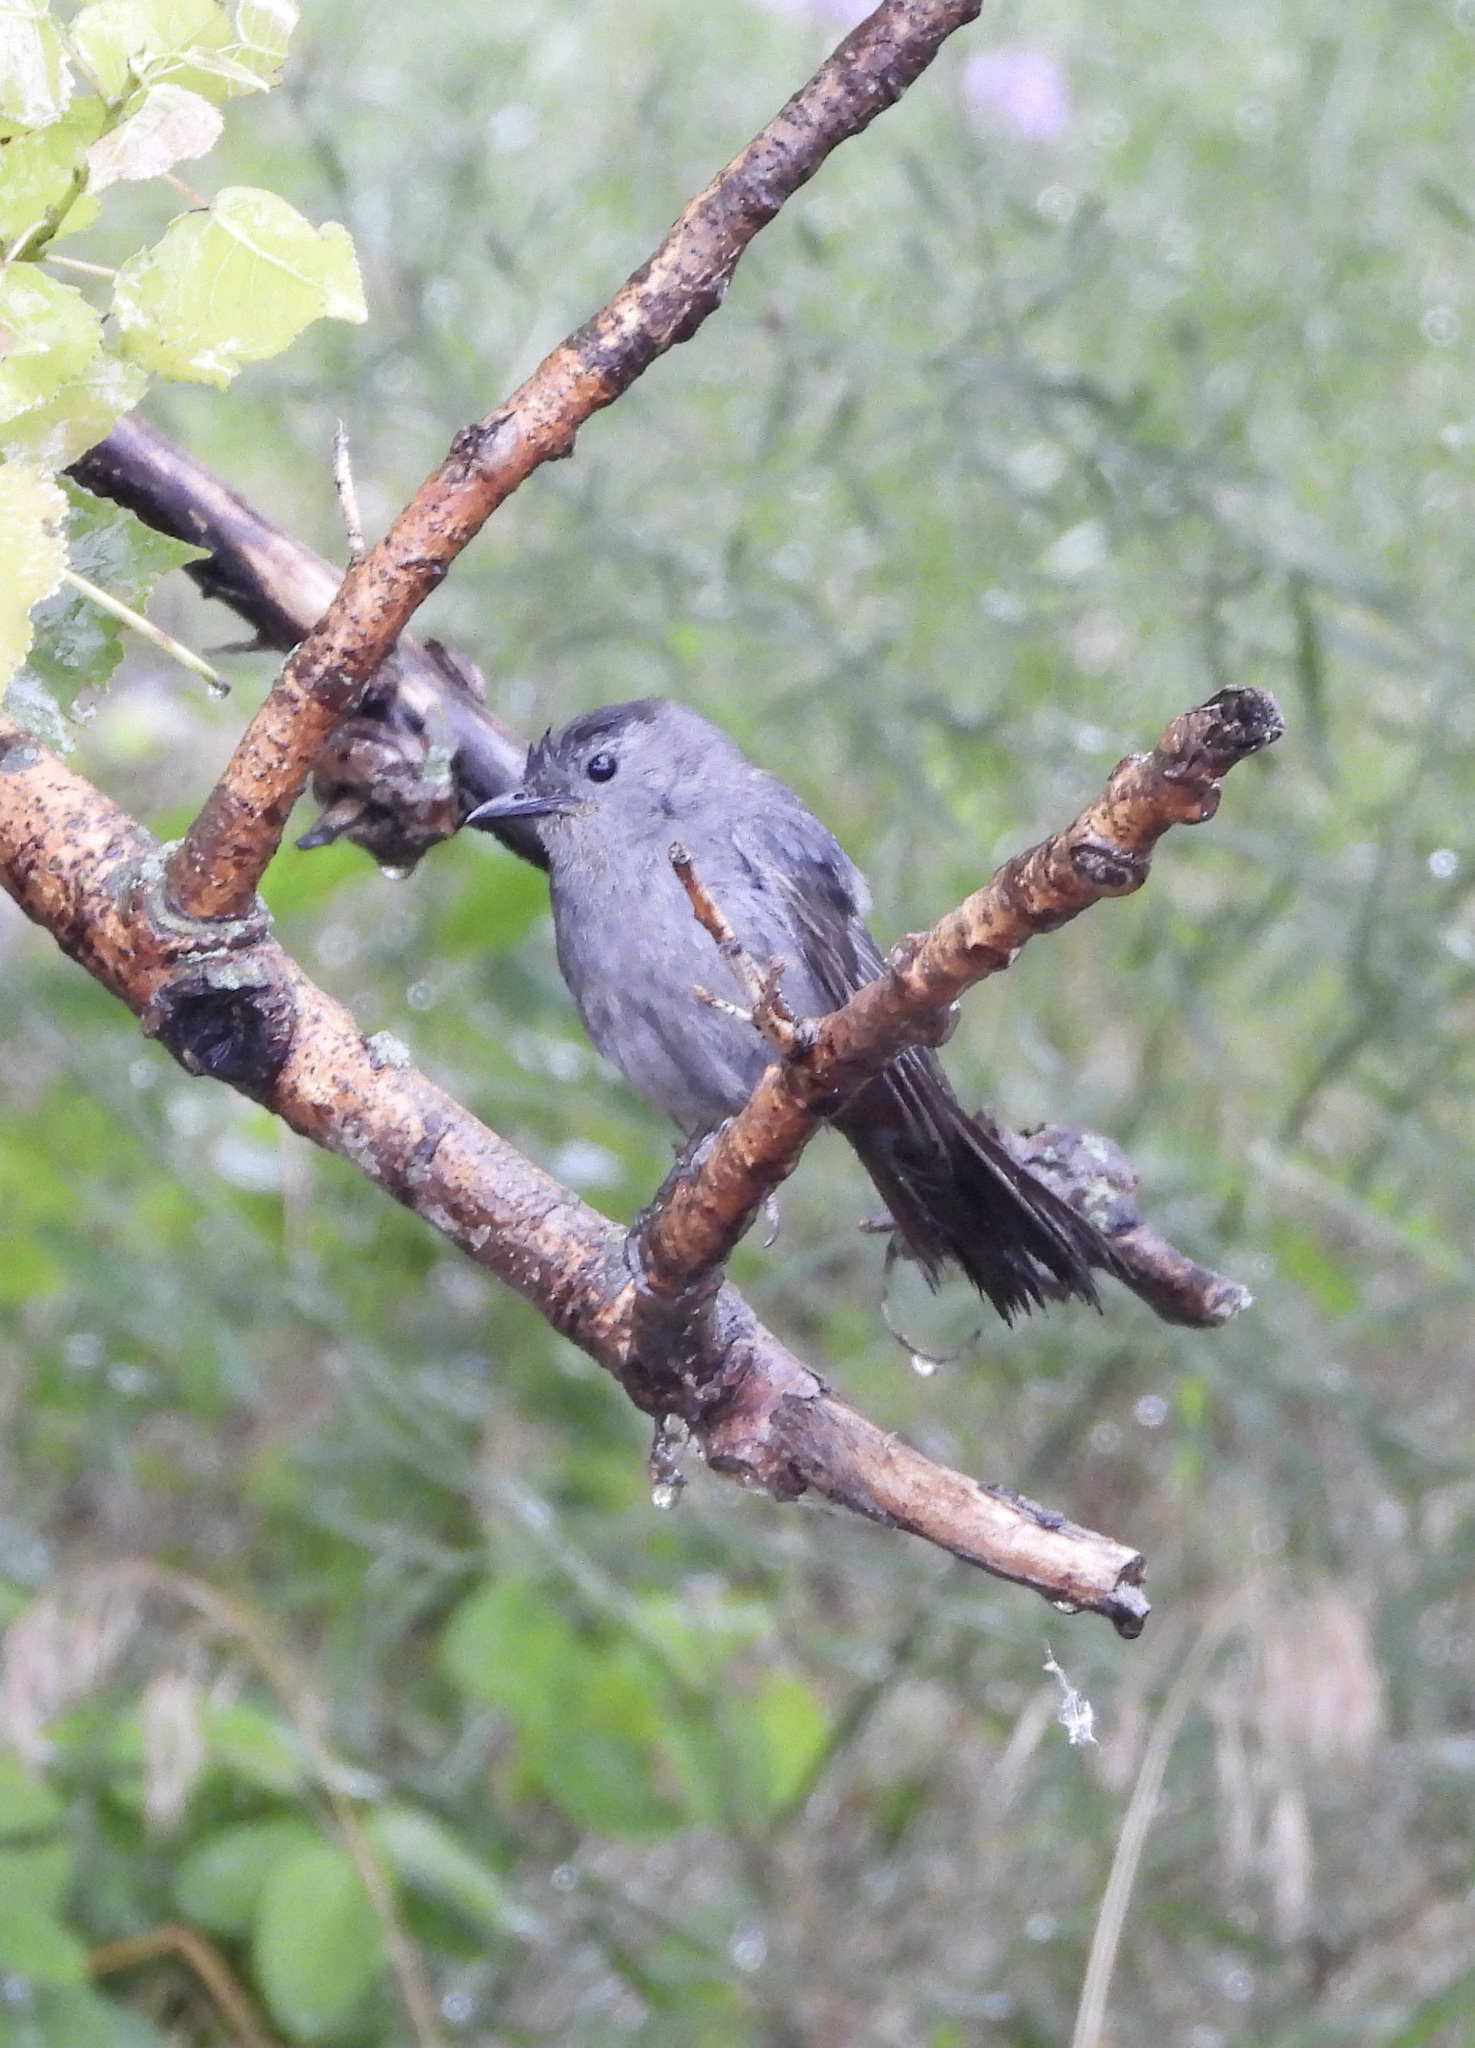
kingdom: Animalia
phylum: Chordata
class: Aves
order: Passeriformes
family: Mimidae
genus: Dumetella
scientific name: Dumetella carolinensis
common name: Gray catbird
